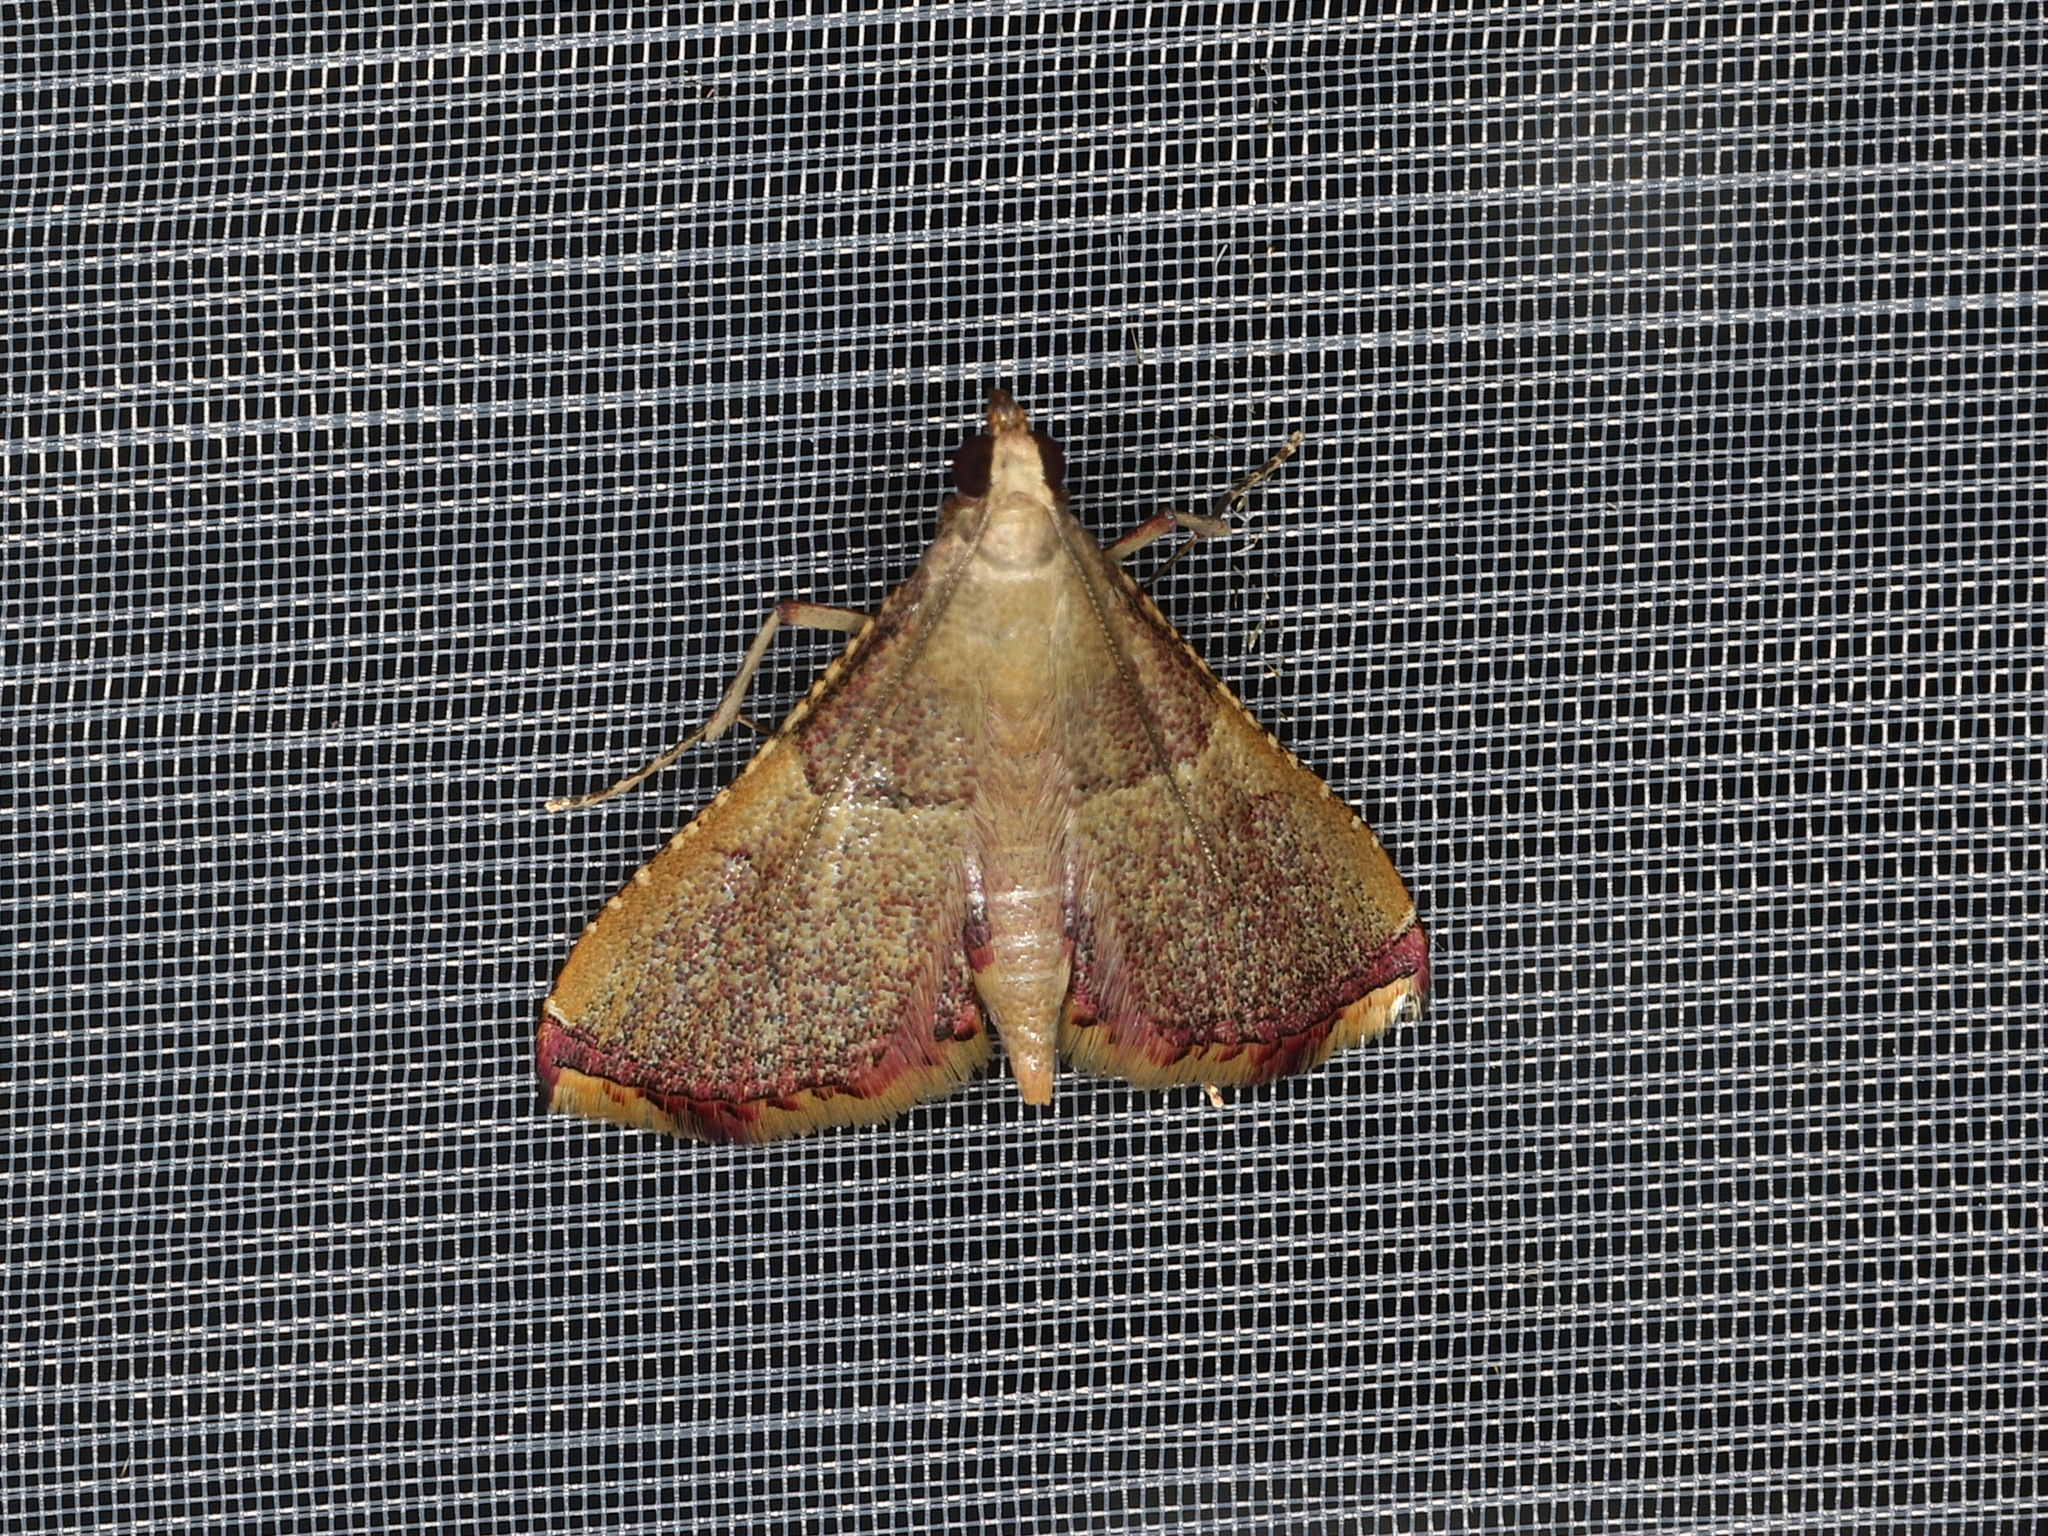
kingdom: Animalia
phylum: Arthropoda
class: Insecta
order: Lepidoptera
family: Pyralidae
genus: Endotricha
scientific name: Endotricha mesenterialis
